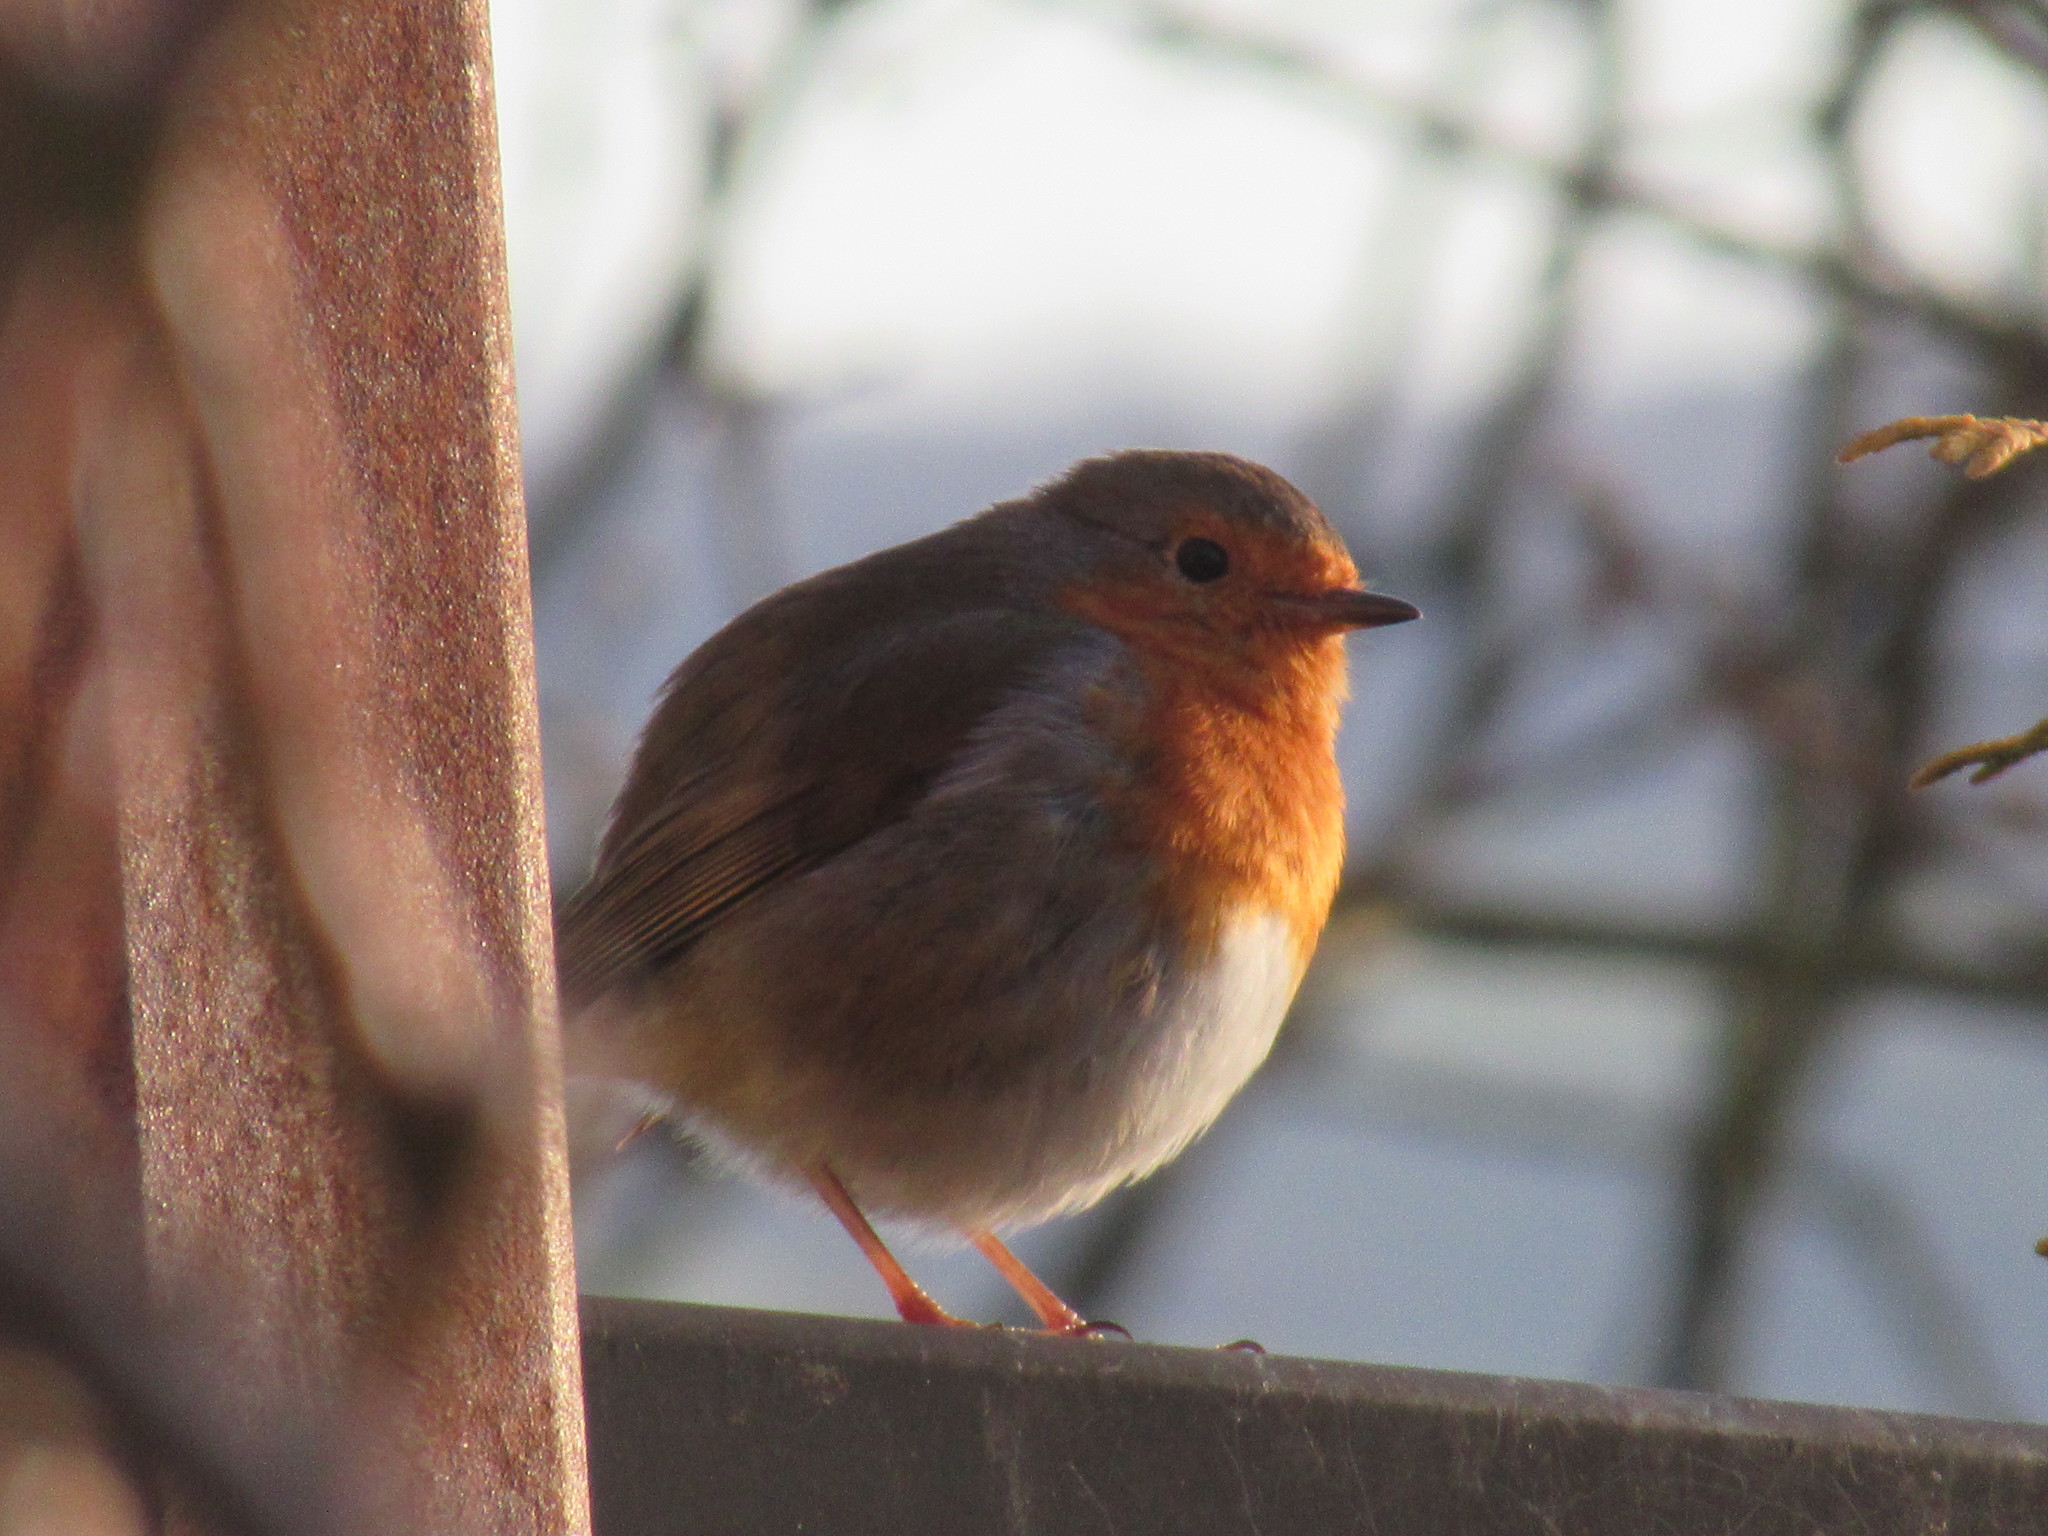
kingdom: Animalia
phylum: Chordata
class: Aves
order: Passeriformes
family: Muscicapidae
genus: Erithacus
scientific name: Erithacus rubecula
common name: European robin
